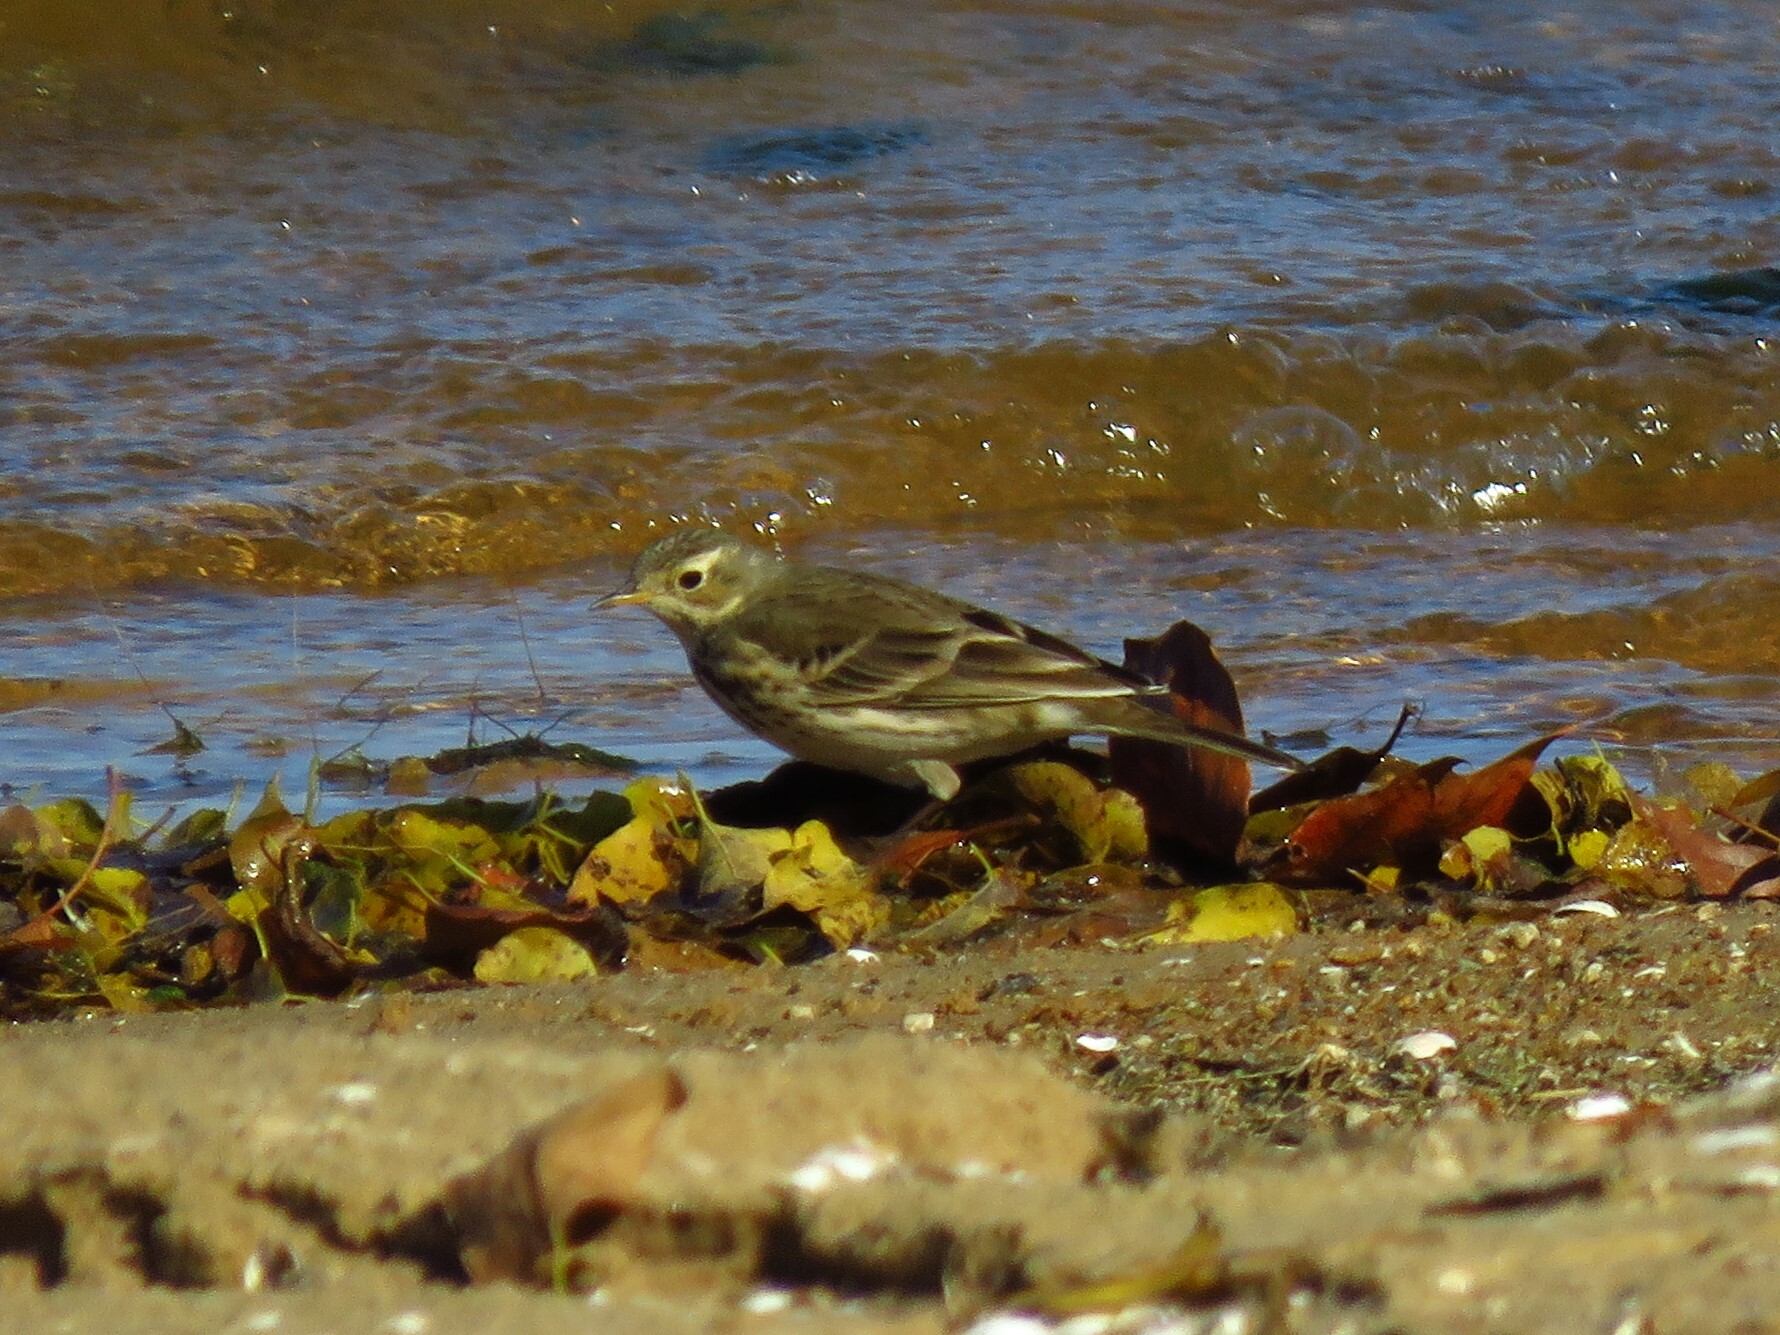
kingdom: Animalia
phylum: Chordata
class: Aves
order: Passeriformes
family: Motacillidae
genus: Anthus
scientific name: Anthus rubescens
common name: Buff-bellied pipit
